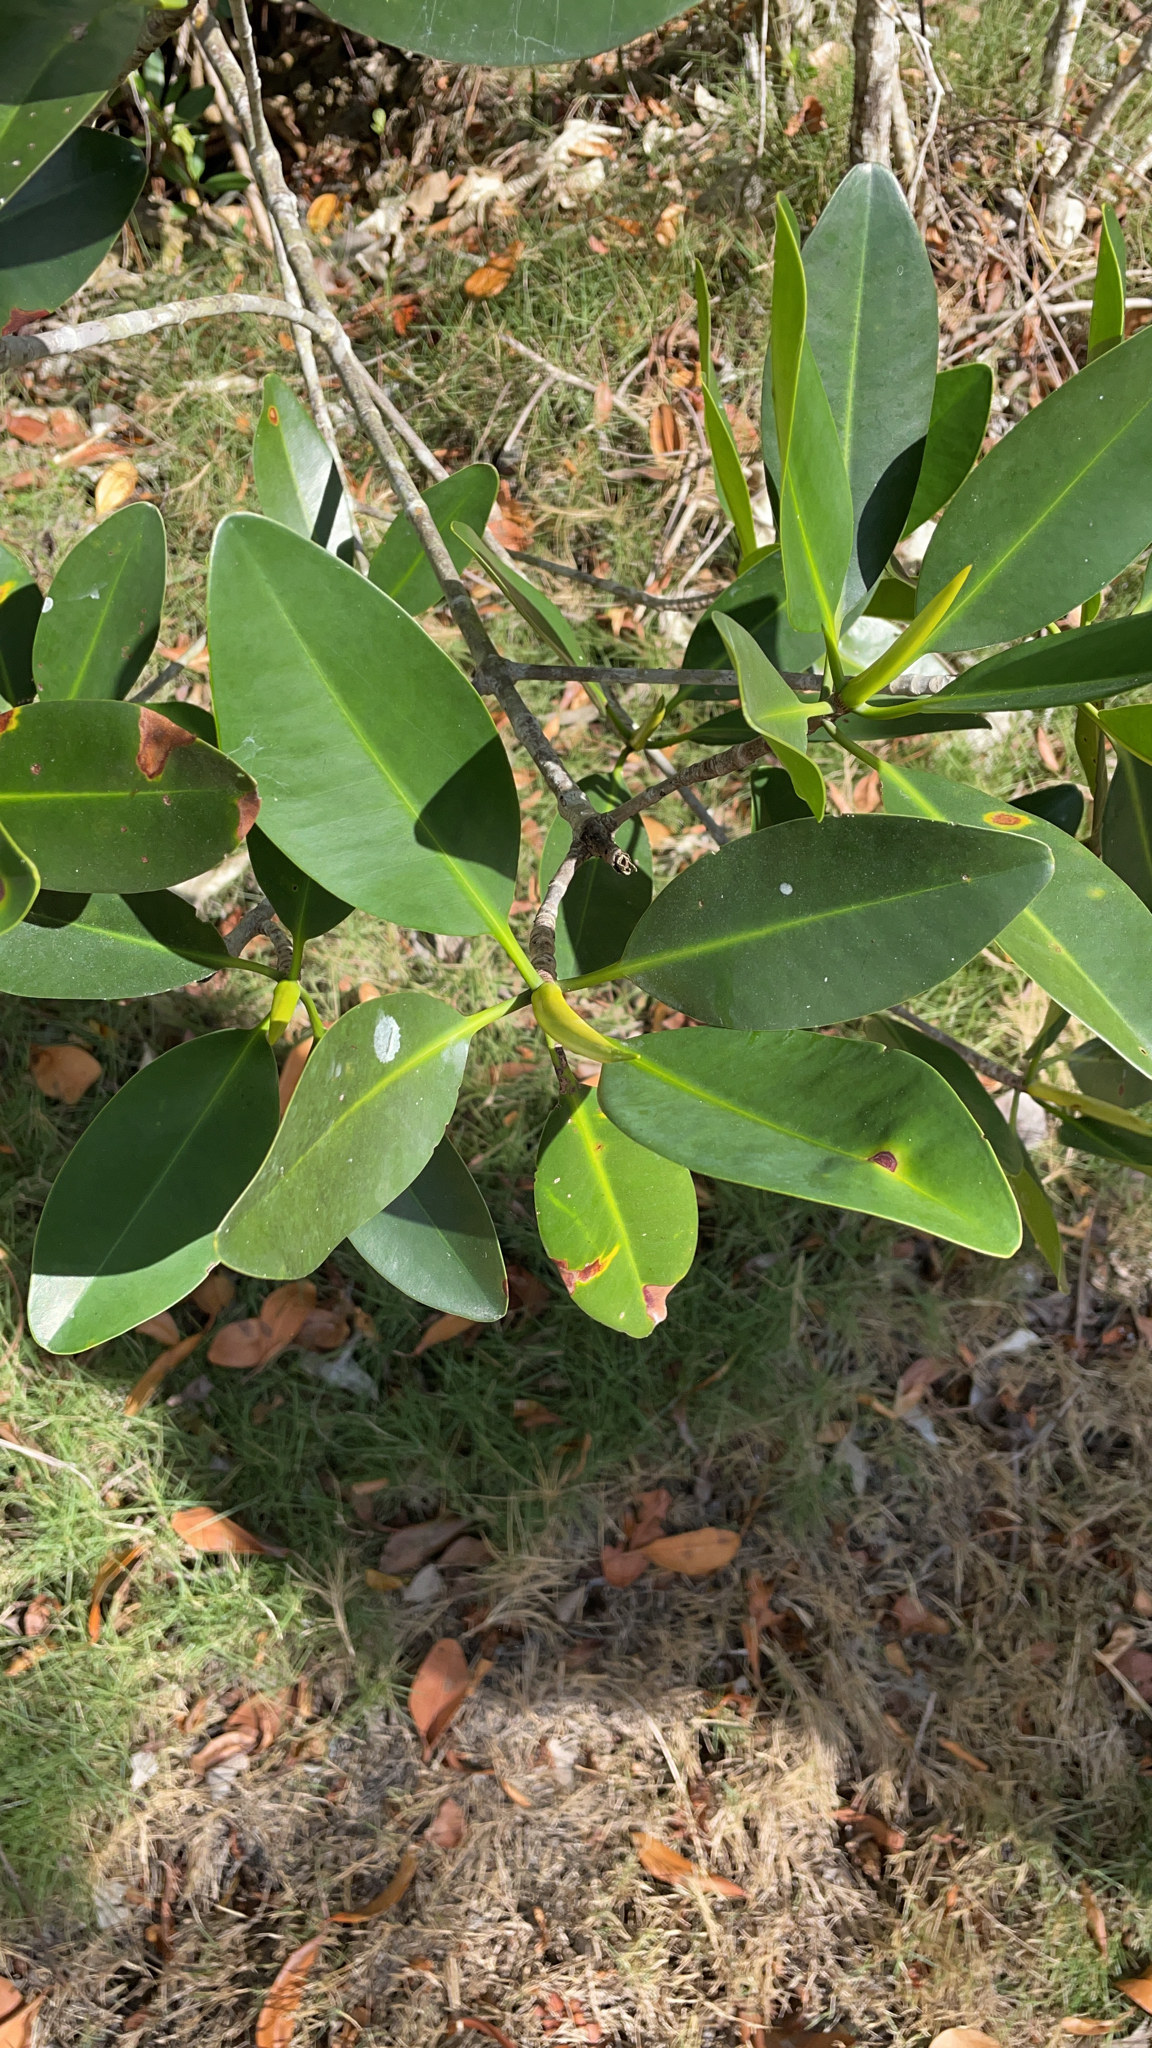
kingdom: Plantae
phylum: Tracheophyta
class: Magnoliopsida
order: Malpighiales
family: Rhizophoraceae
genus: Rhizophora
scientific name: Rhizophora mangle
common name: Red mangrove
